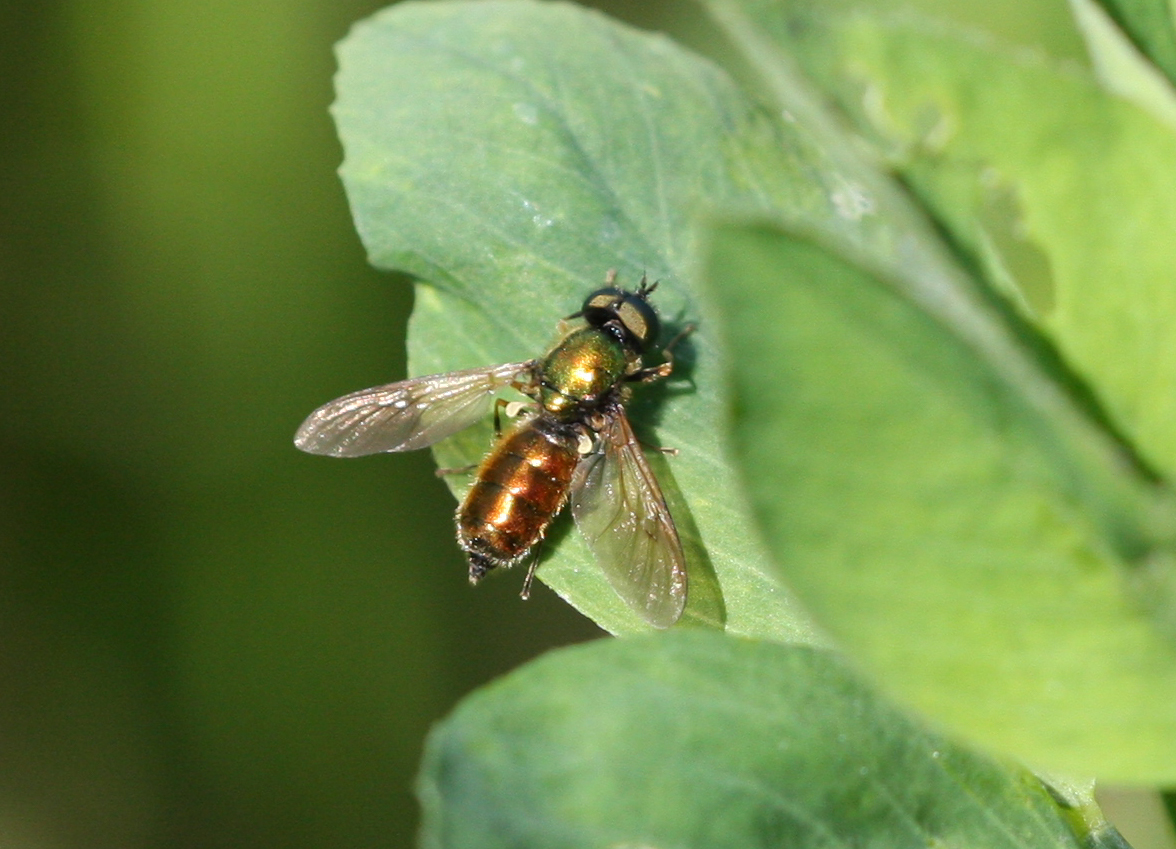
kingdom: Animalia
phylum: Arthropoda
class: Insecta
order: Diptera
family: Stratiomyidae
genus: Chloromyia
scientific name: Chloromyia formosa
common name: Soldier fly
